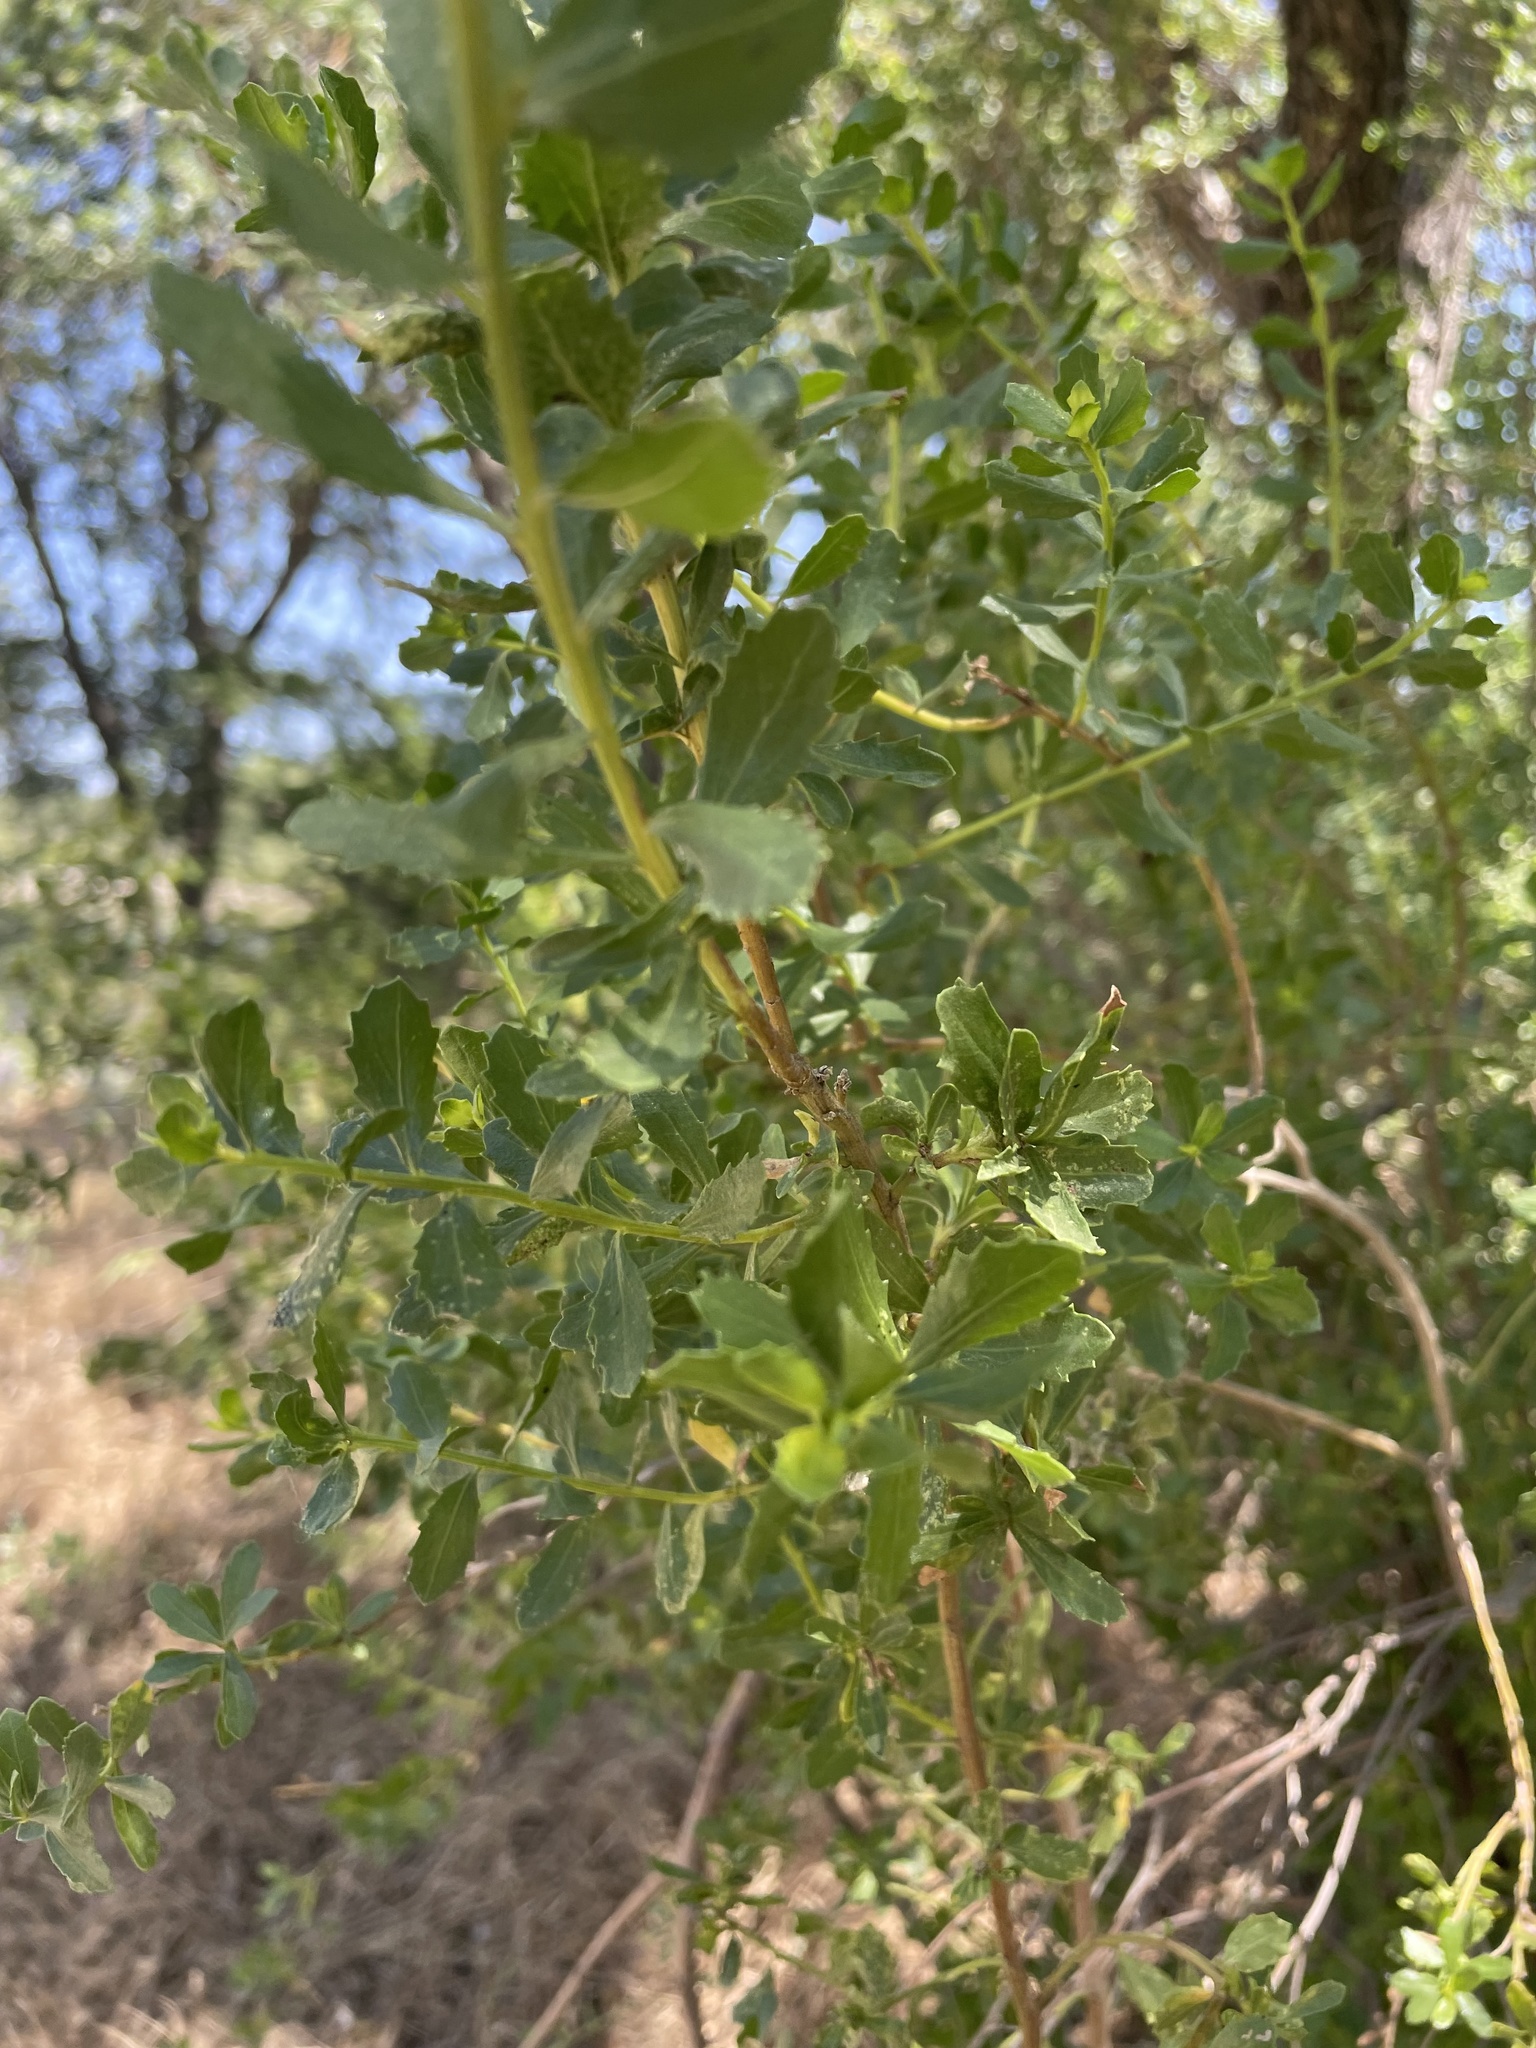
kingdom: Plantae
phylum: Tracheophyta
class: Magnoliopsida
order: Asterales
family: Asteraceae
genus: Baccharis
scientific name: Baccharis pilularis
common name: Coyotebrush
